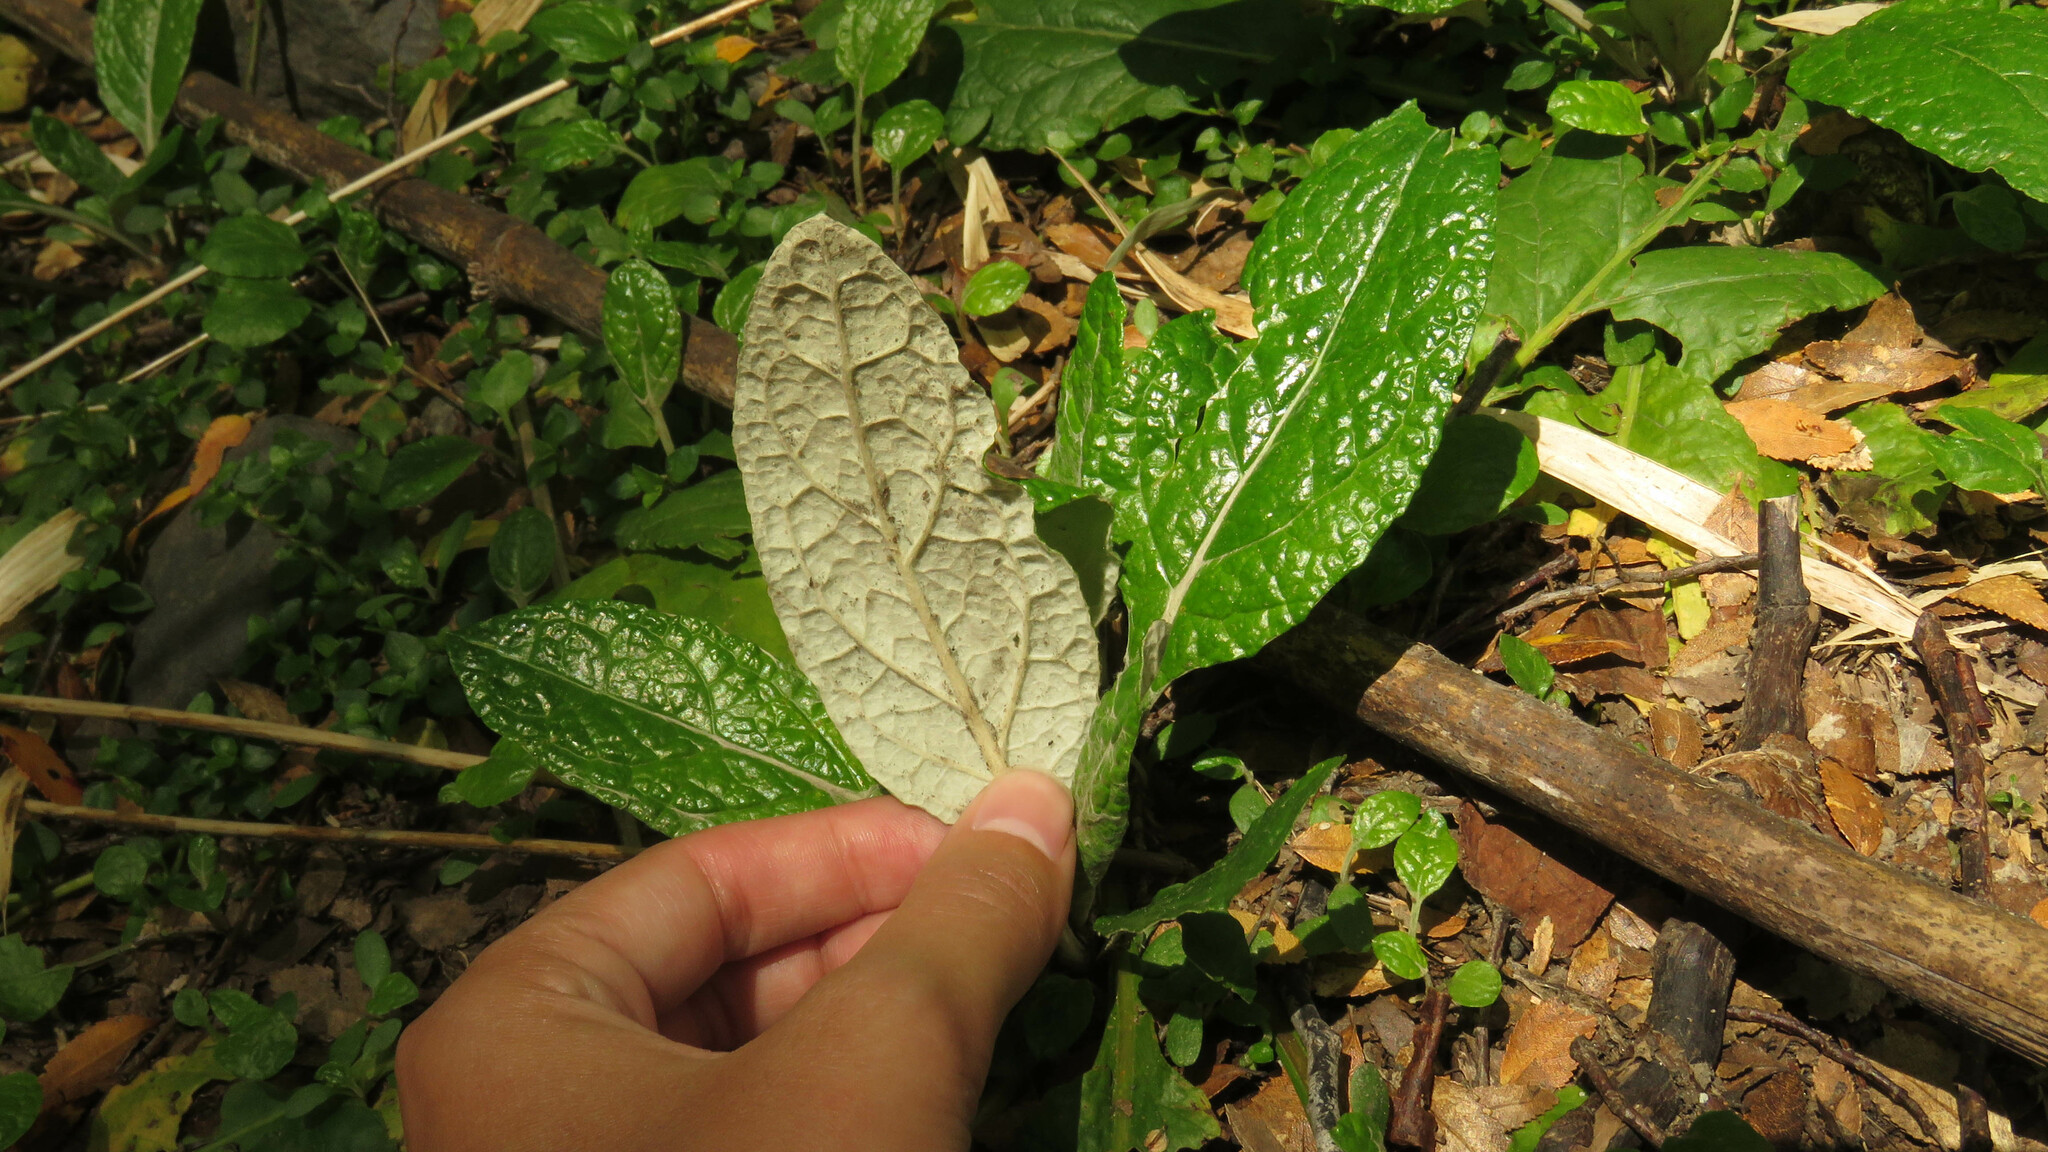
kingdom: Plantae
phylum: Tracheophyta
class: Magnoliopsida
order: Asterales
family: Asteraceae
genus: Adenocaulon
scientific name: Adenocaulon chilense
